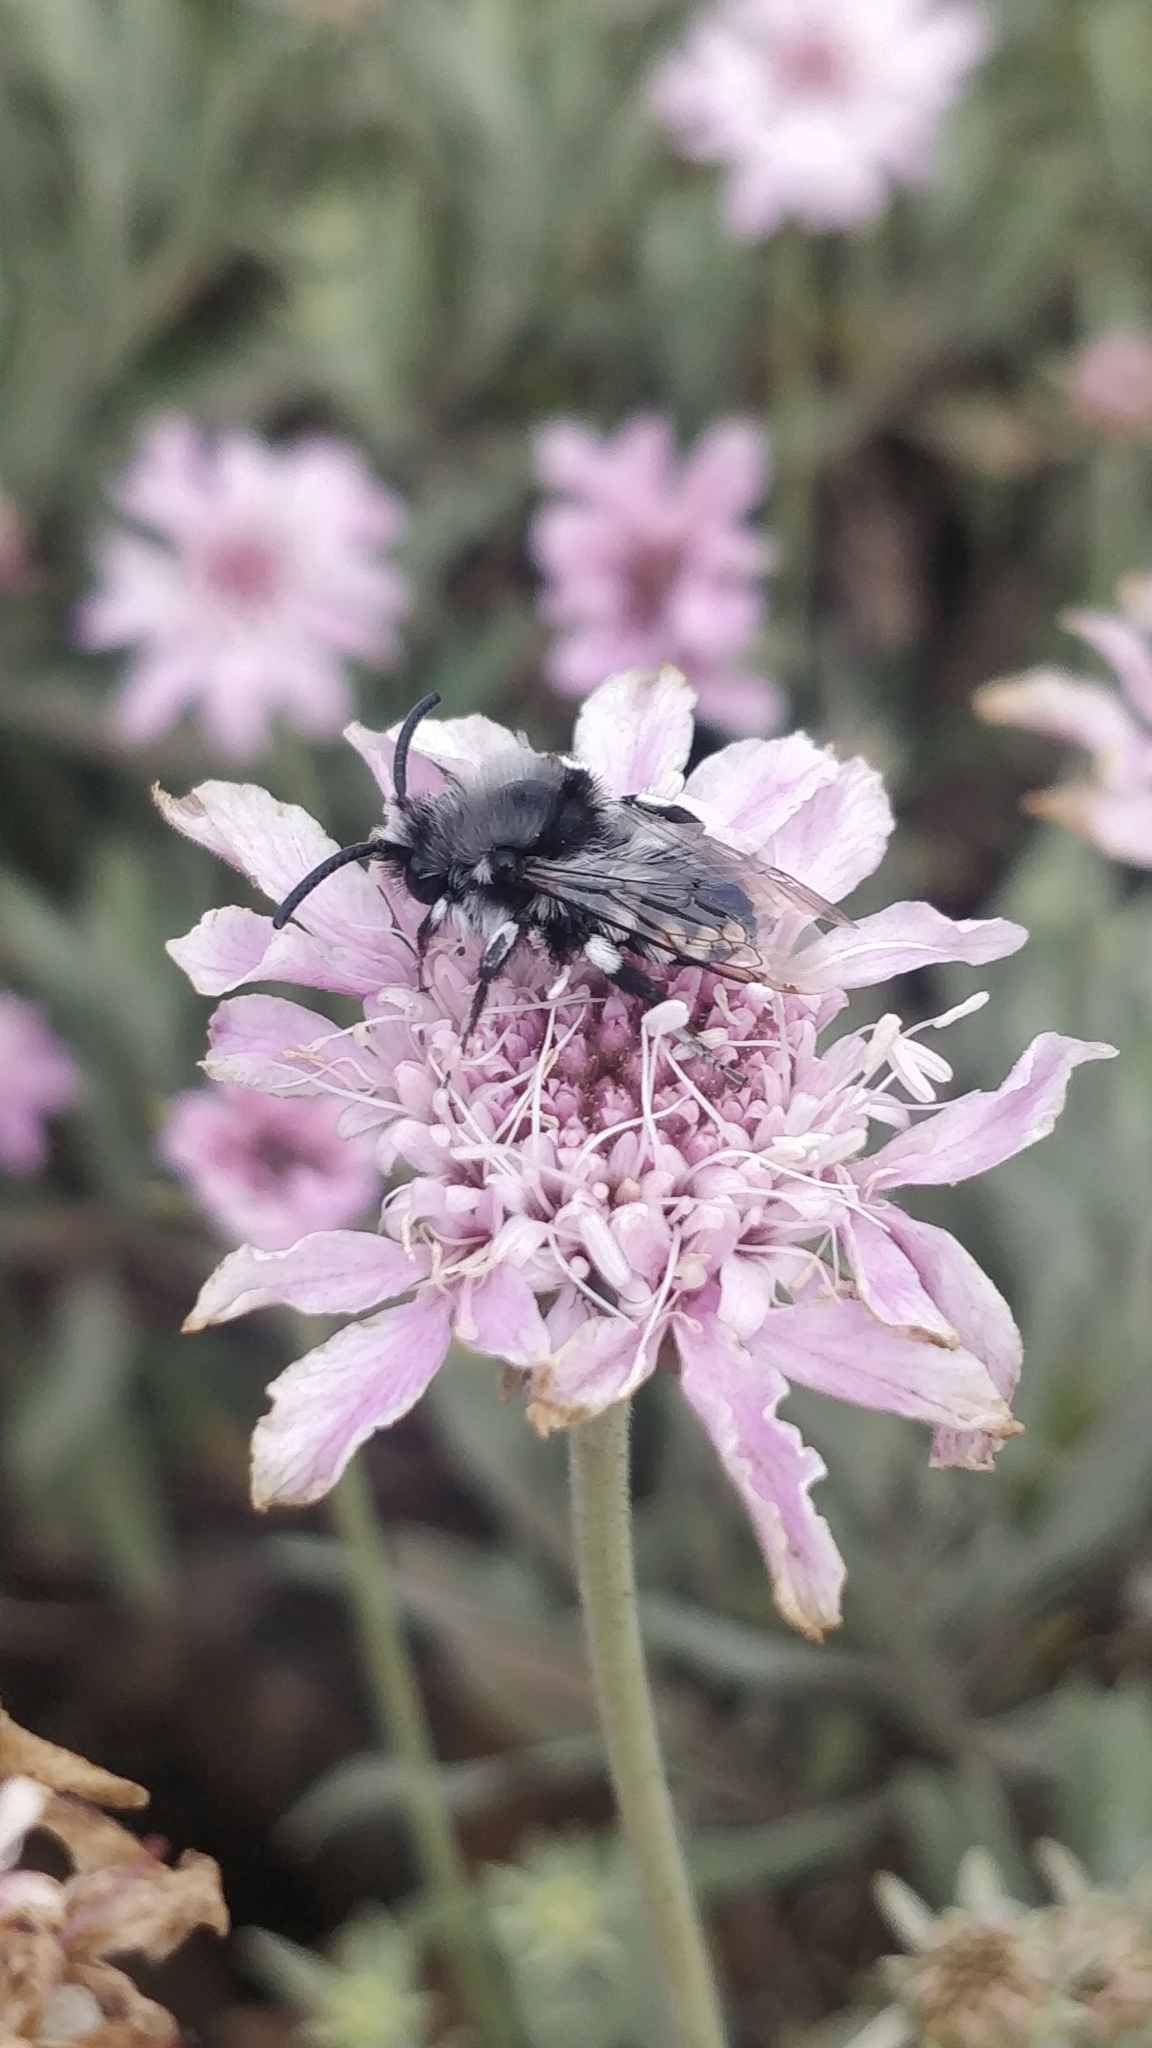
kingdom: Animalia
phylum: Arthropoda
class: Insecta
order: Hymenoptera
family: Apidae
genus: Melecta
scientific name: Melecta curvispina
